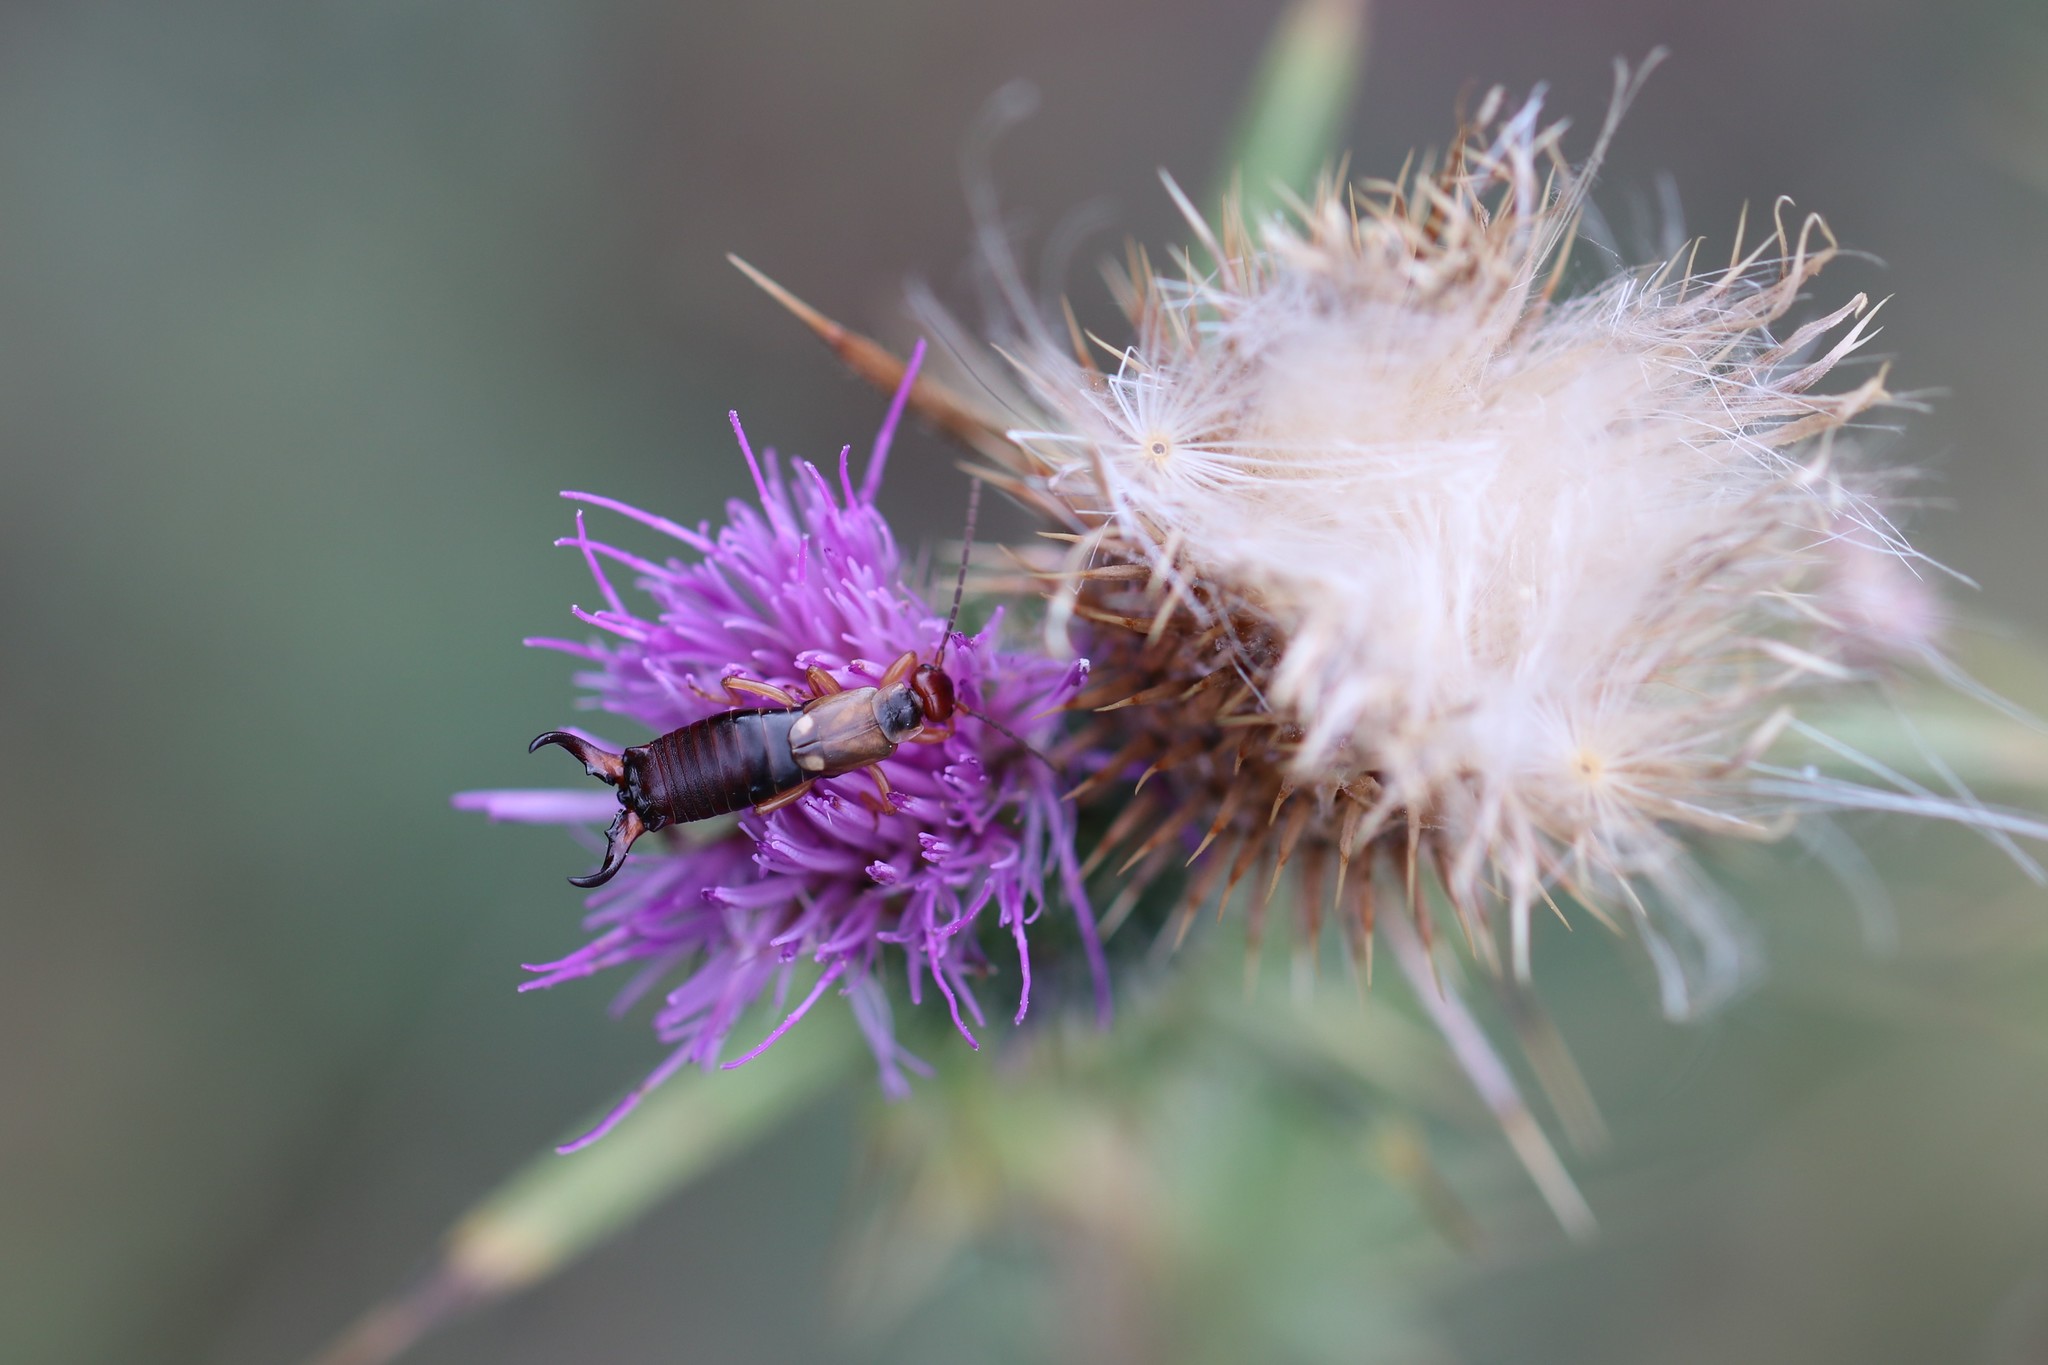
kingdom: Animalia
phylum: Arthropoda
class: Insecta
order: Dermaptera
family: Forficulidae
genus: Forficula
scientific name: Forficula
